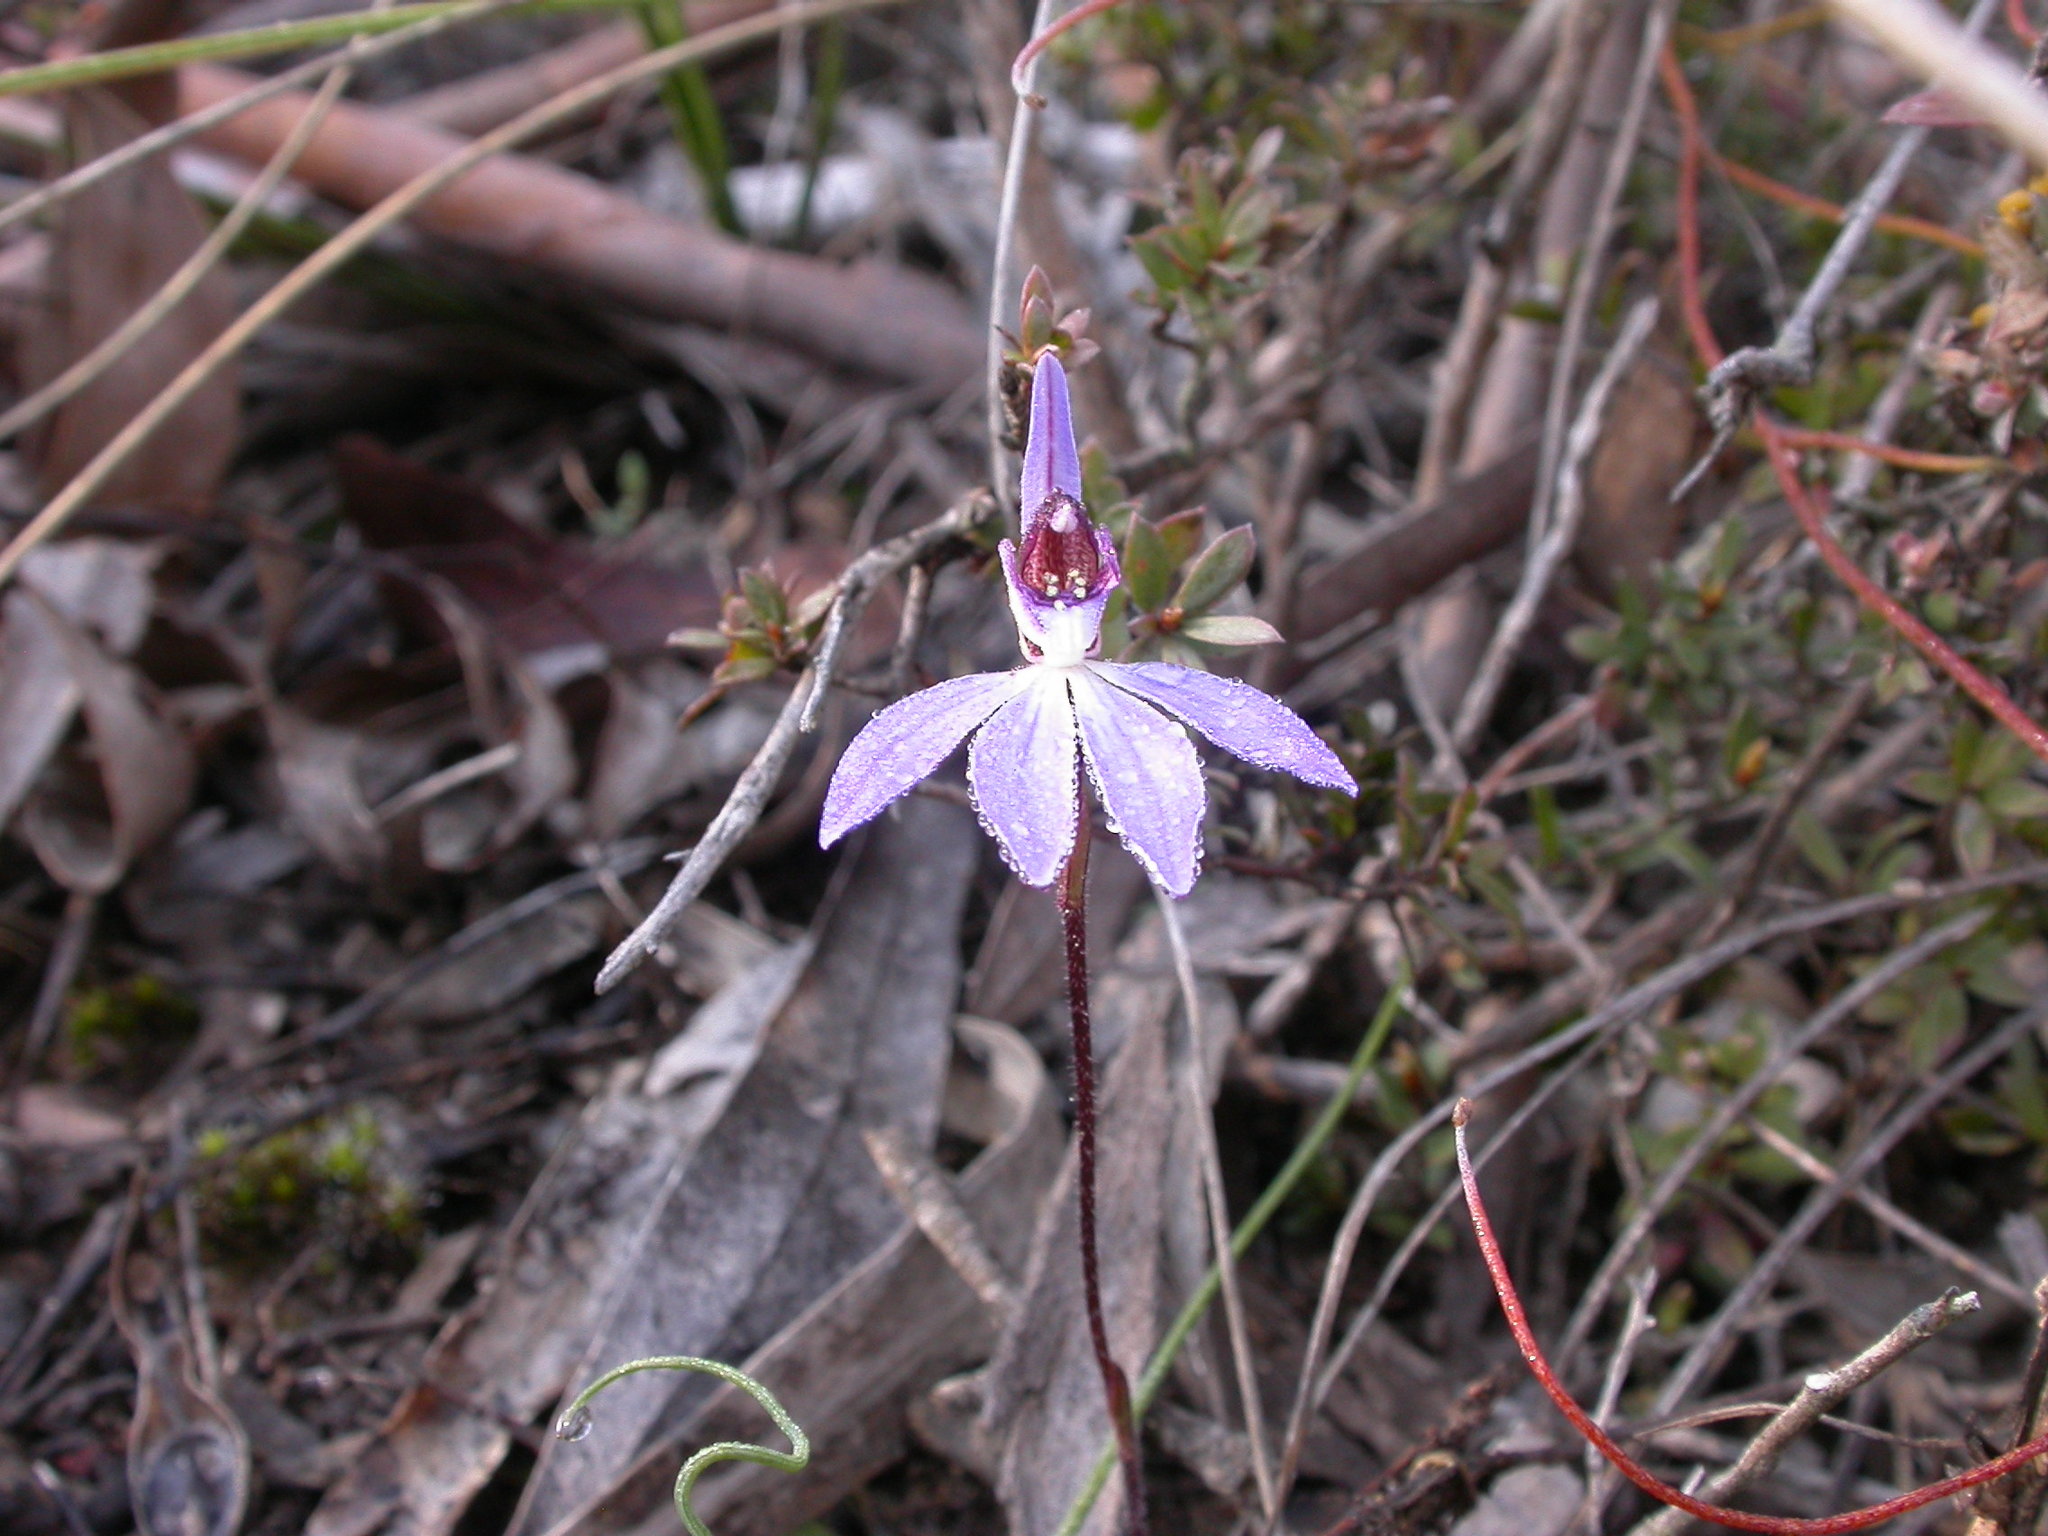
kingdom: Plantae
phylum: Tracheophyta
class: Liliopsida
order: Asparagales
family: Orchidaceae
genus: Caladenia
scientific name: Caladenia caerulea
